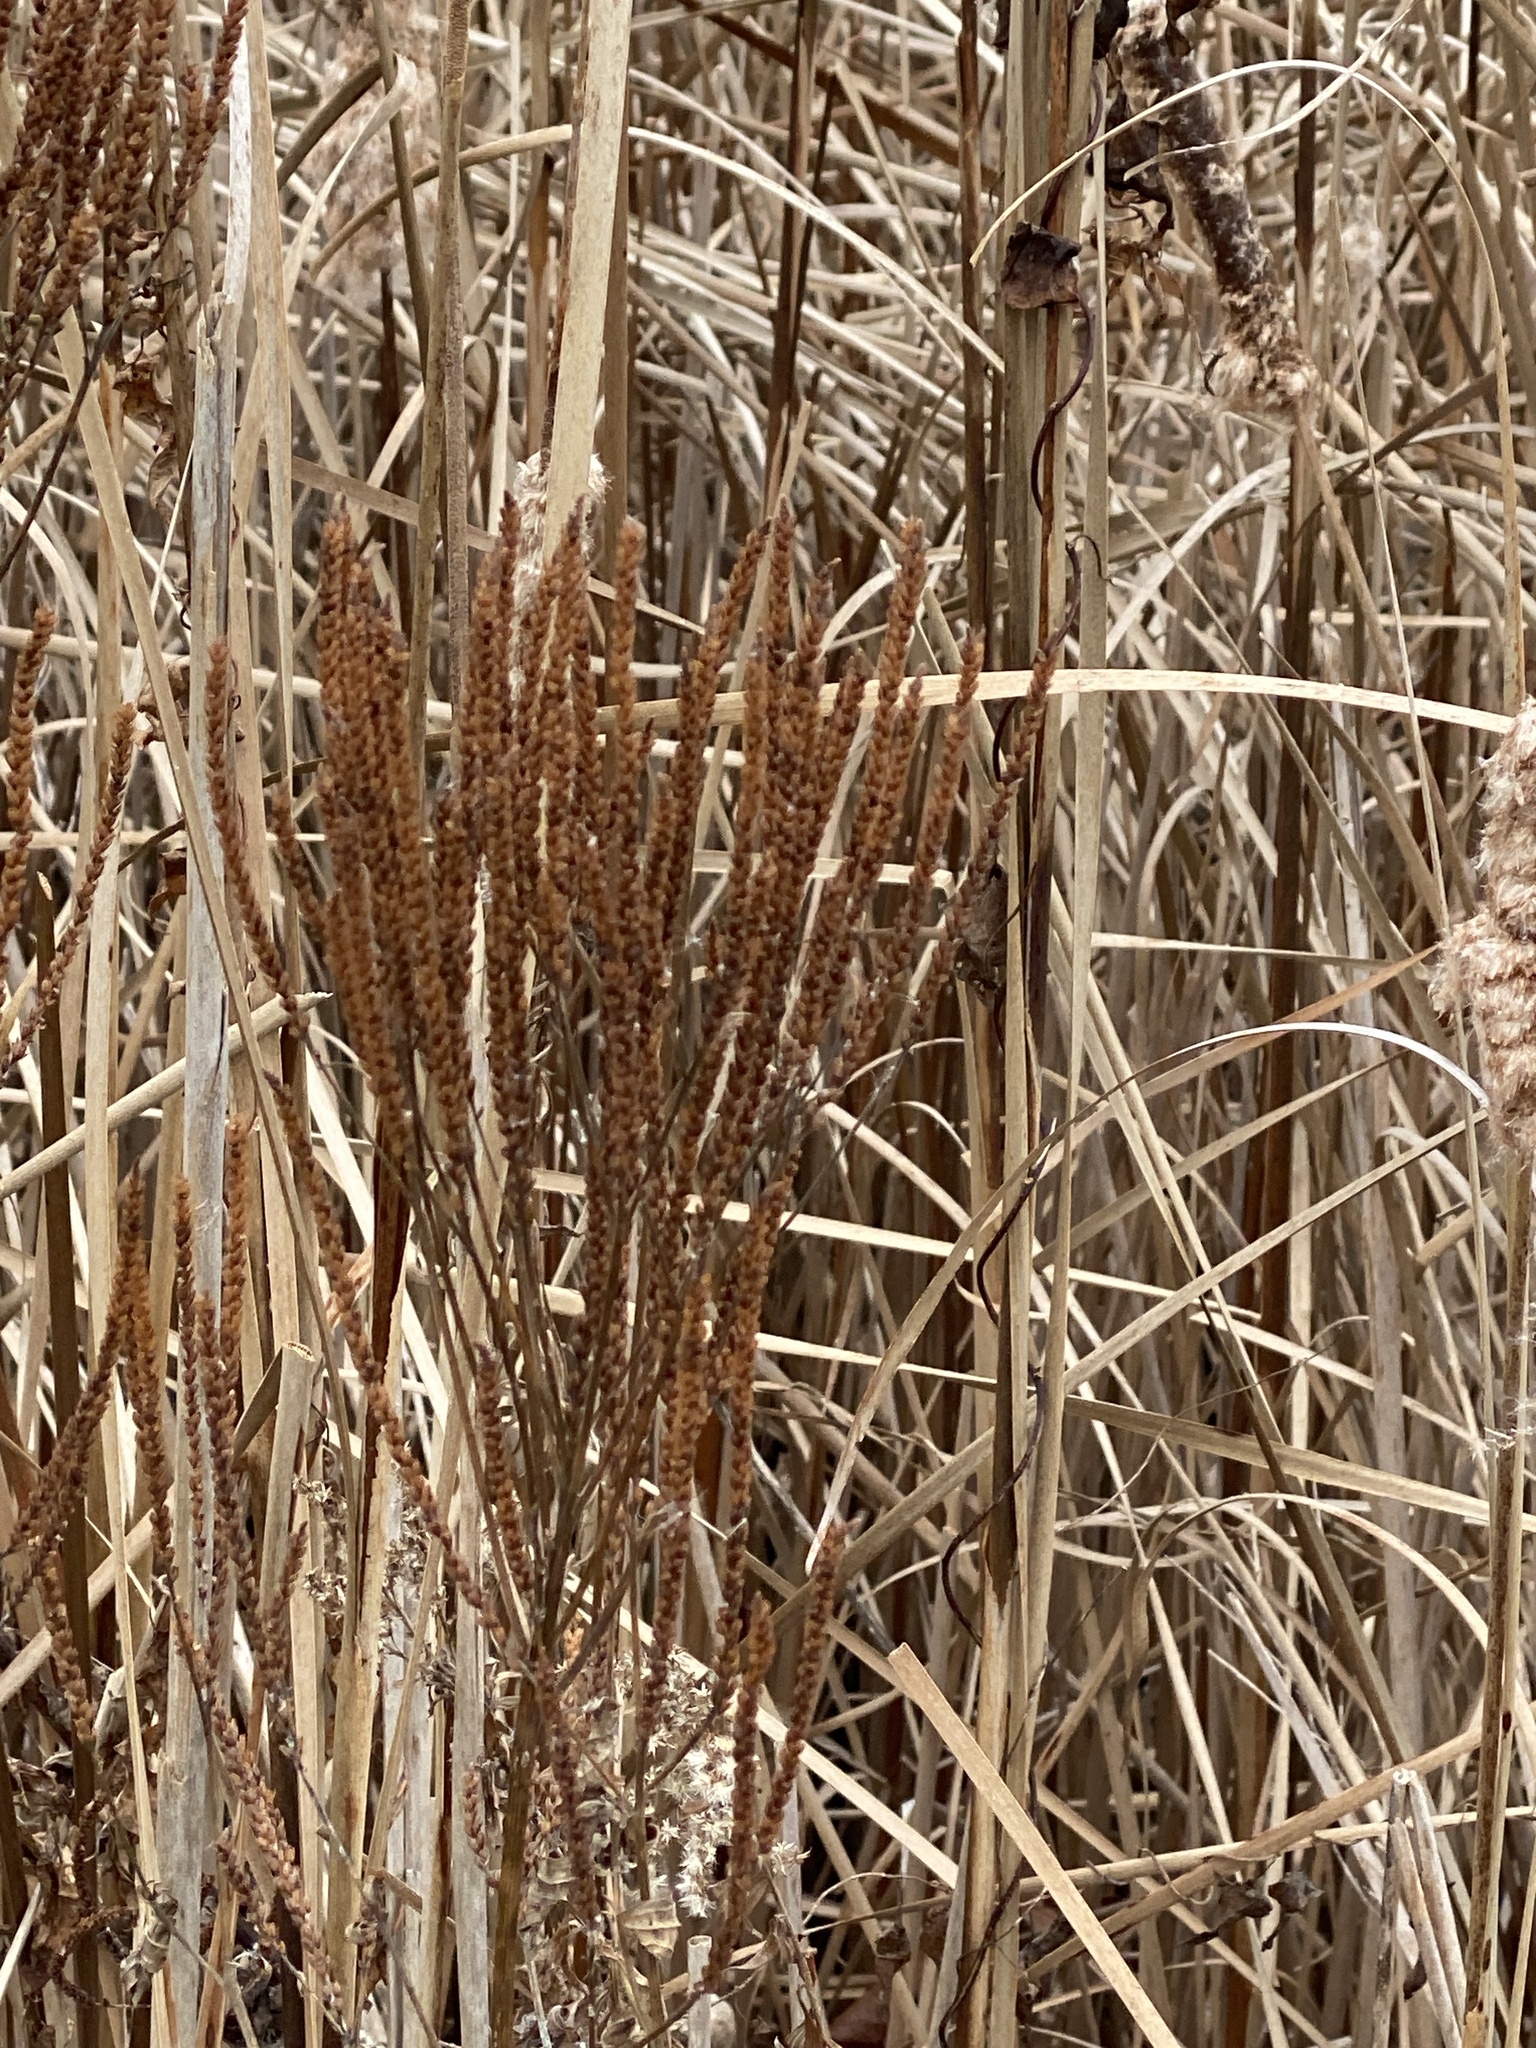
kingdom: Plantae
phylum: Tracheophyta
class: Magnoliopsida
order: Lamiales
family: Verbenaceae
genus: Verbena
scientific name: Verbena hastata
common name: American blue vervain
